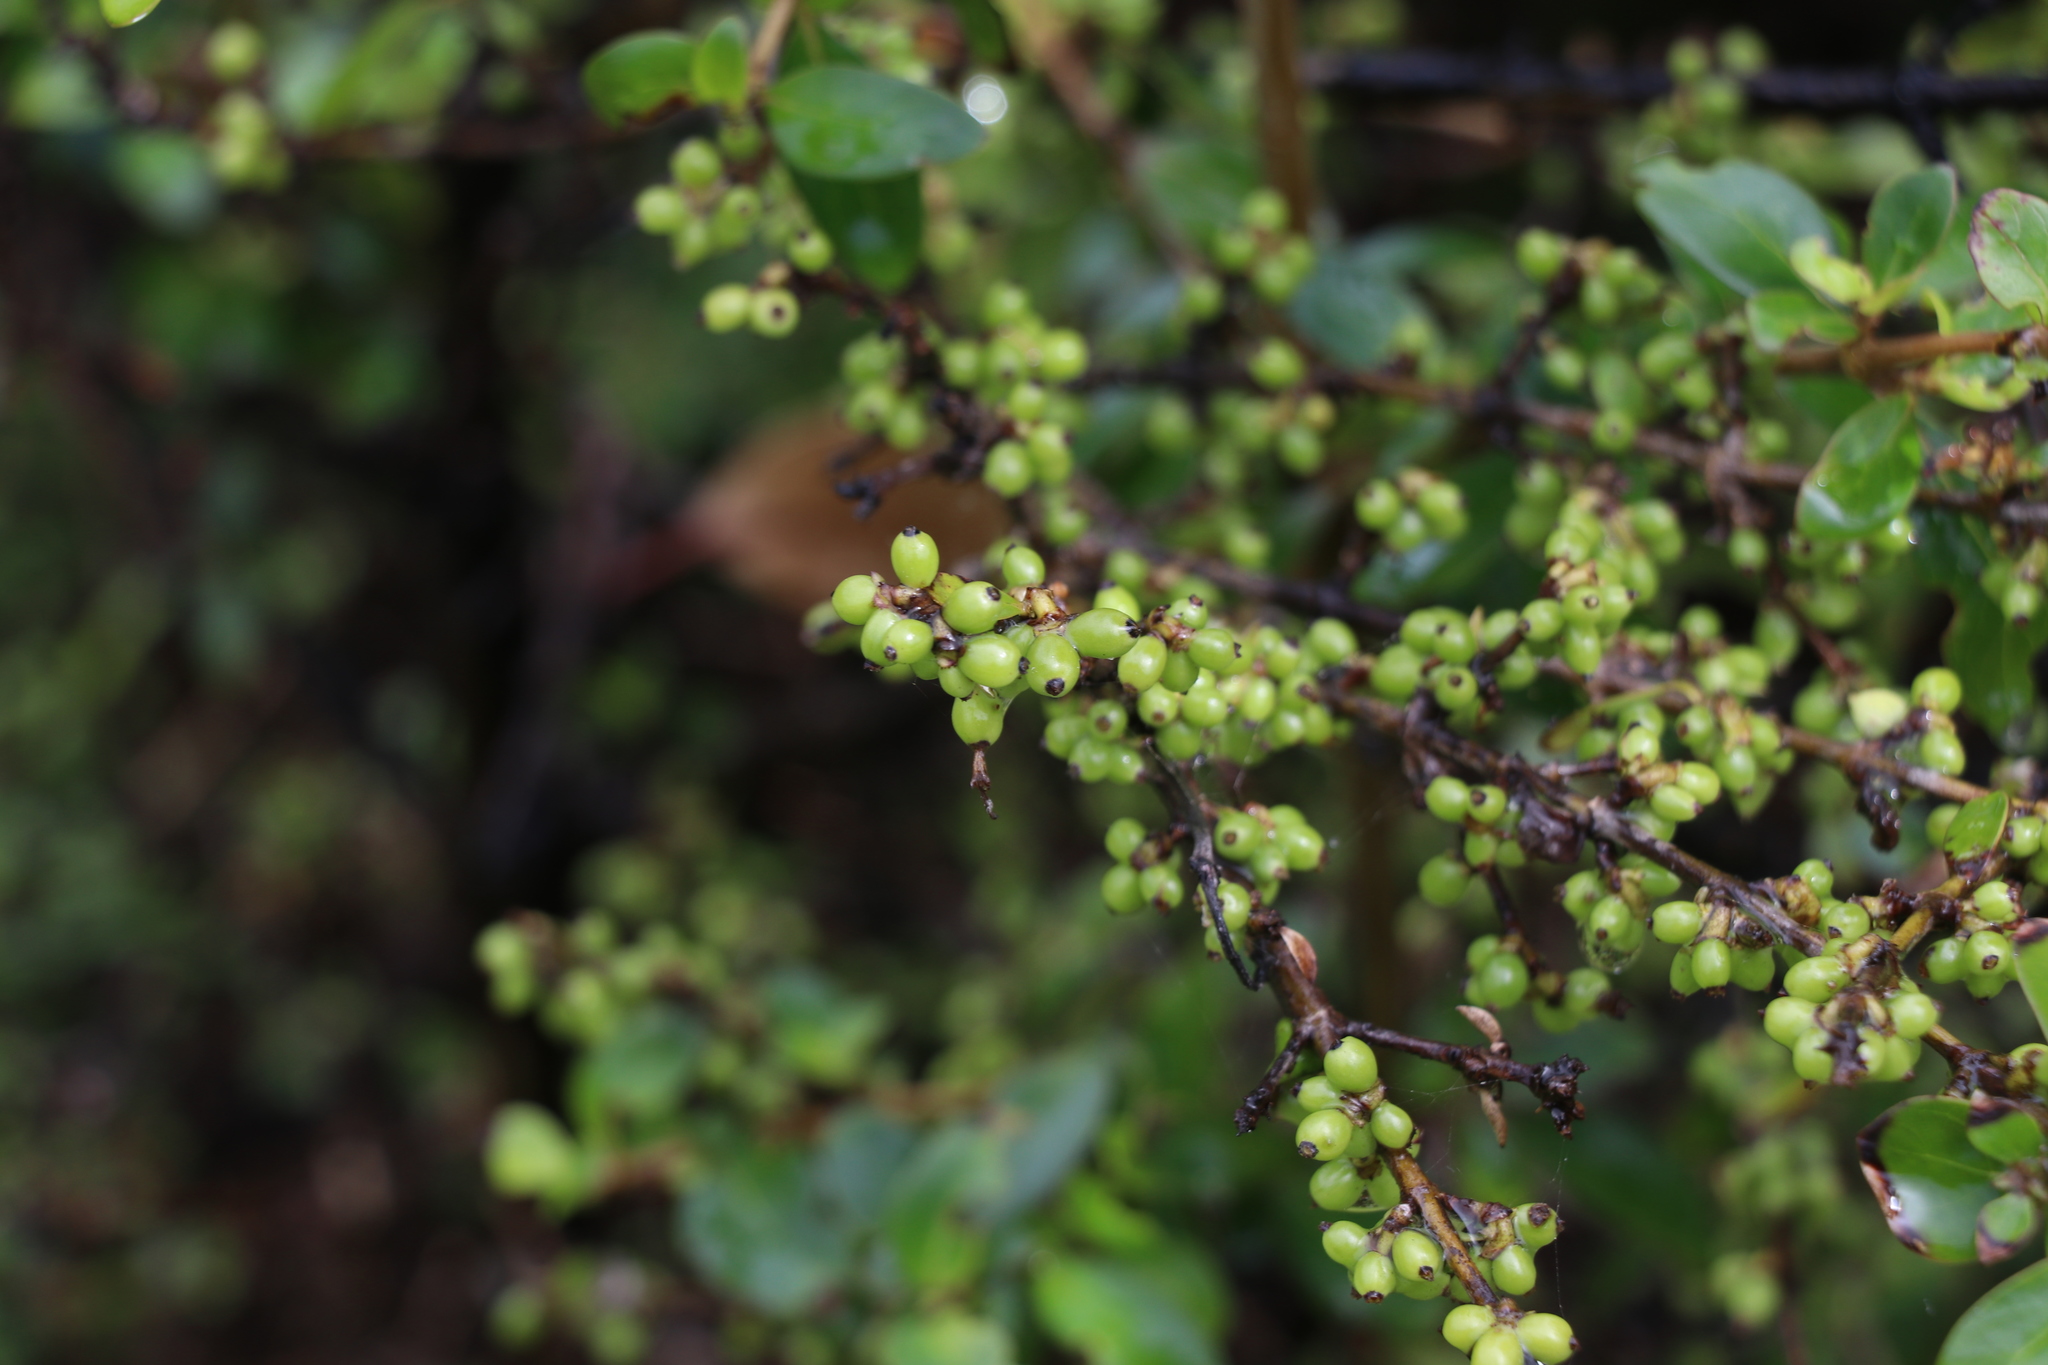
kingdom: Plantae
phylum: Tracheophyta
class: Magnoliopsida
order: Gentianales
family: Rubiaceae
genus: Coprosma
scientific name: Coprosma robusta
